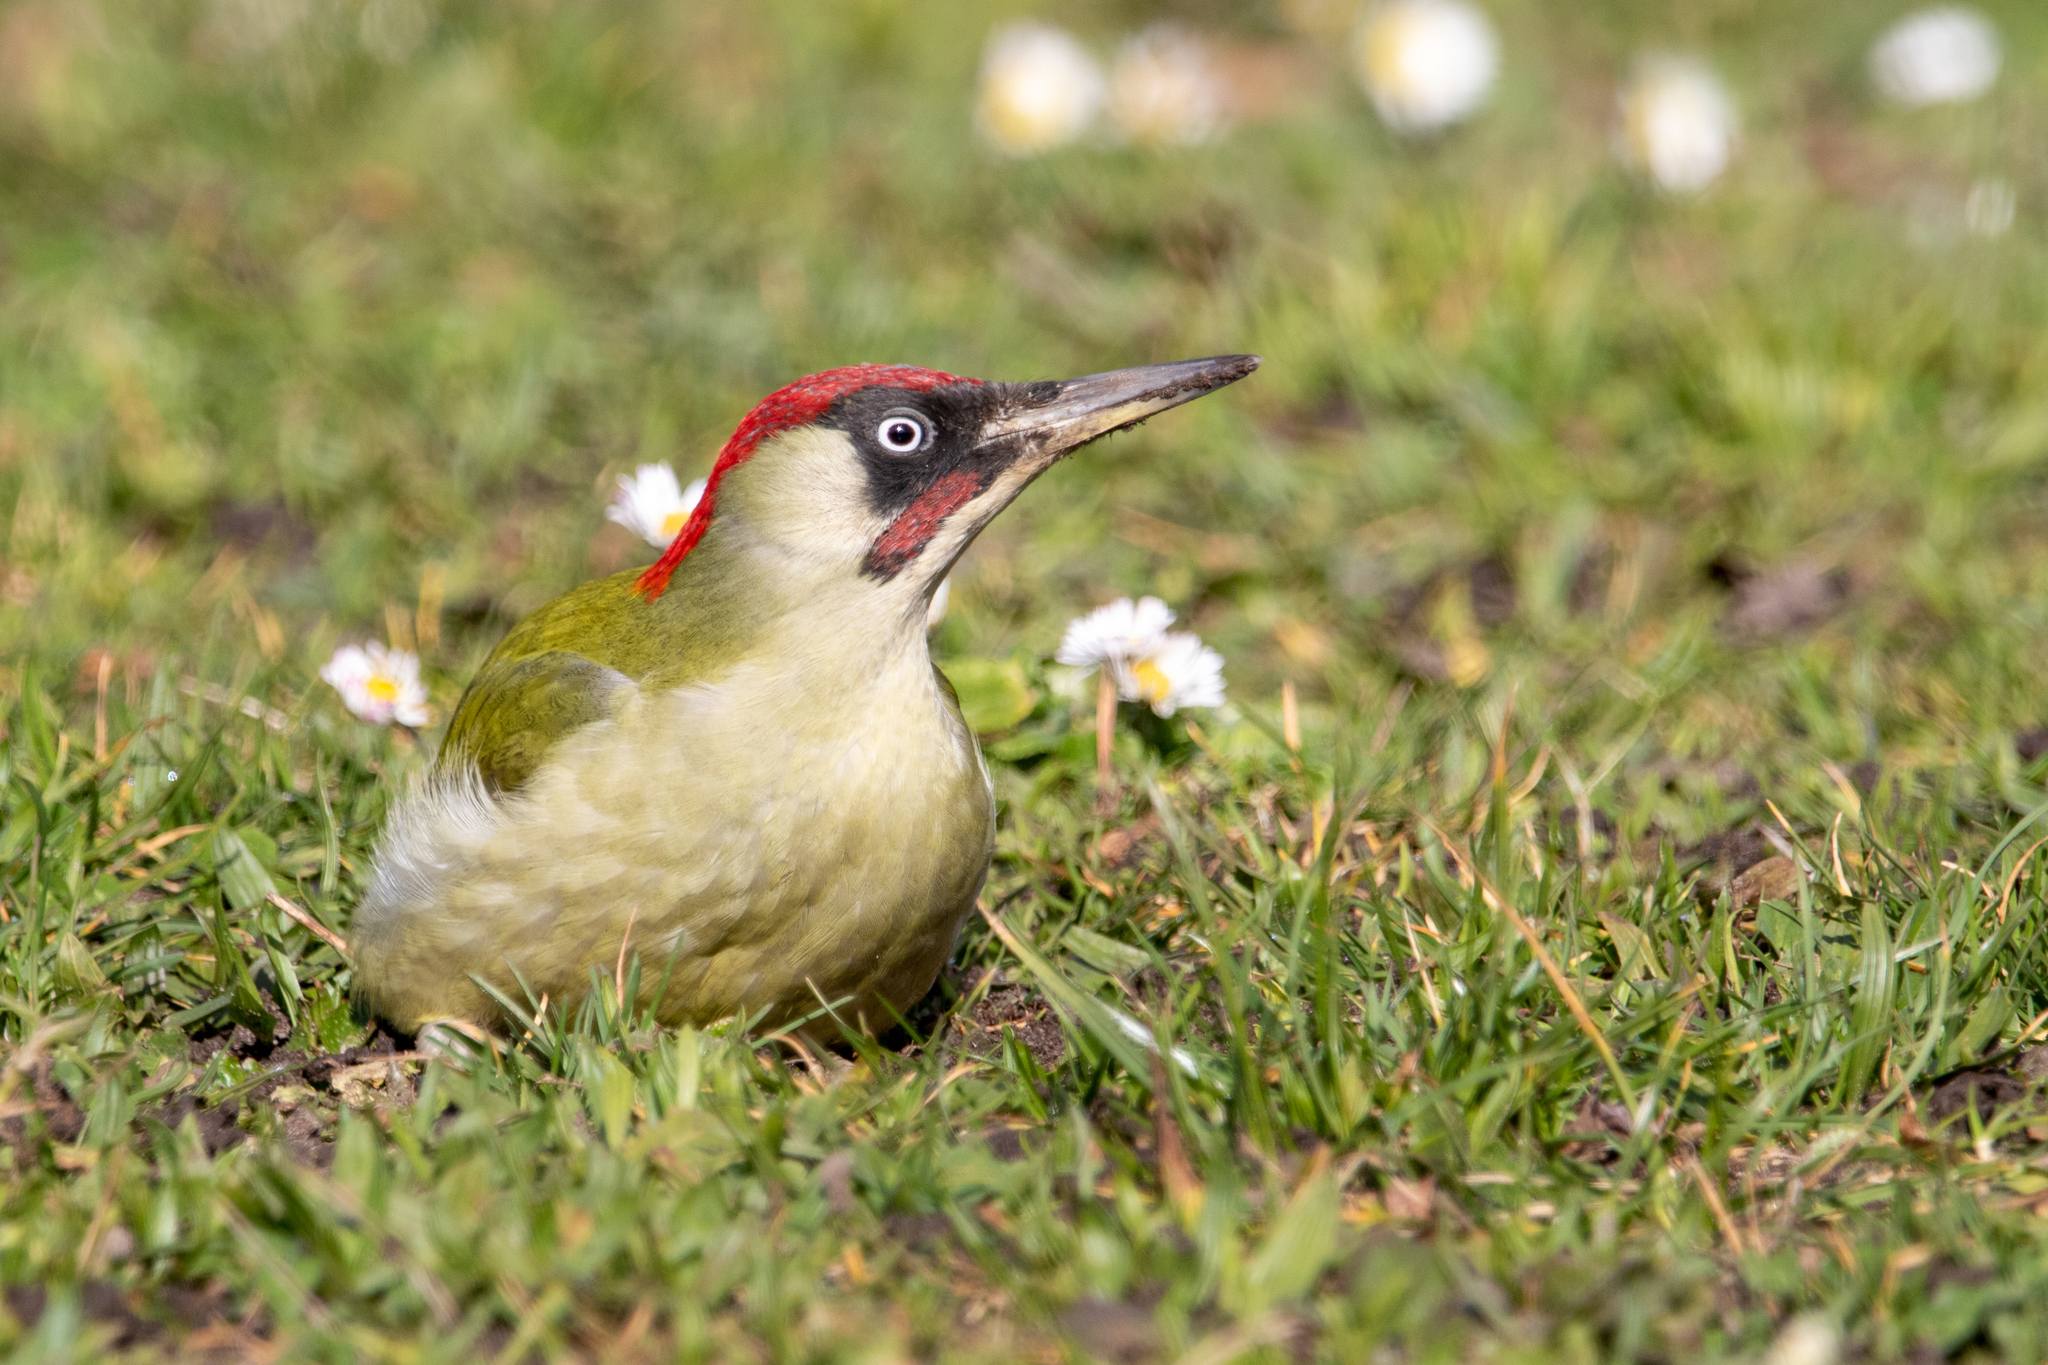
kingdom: Animalia
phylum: Chordata
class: Aves
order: Piciformes
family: Picidae
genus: Picus
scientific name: Picus viridis
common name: European green woodpecker
